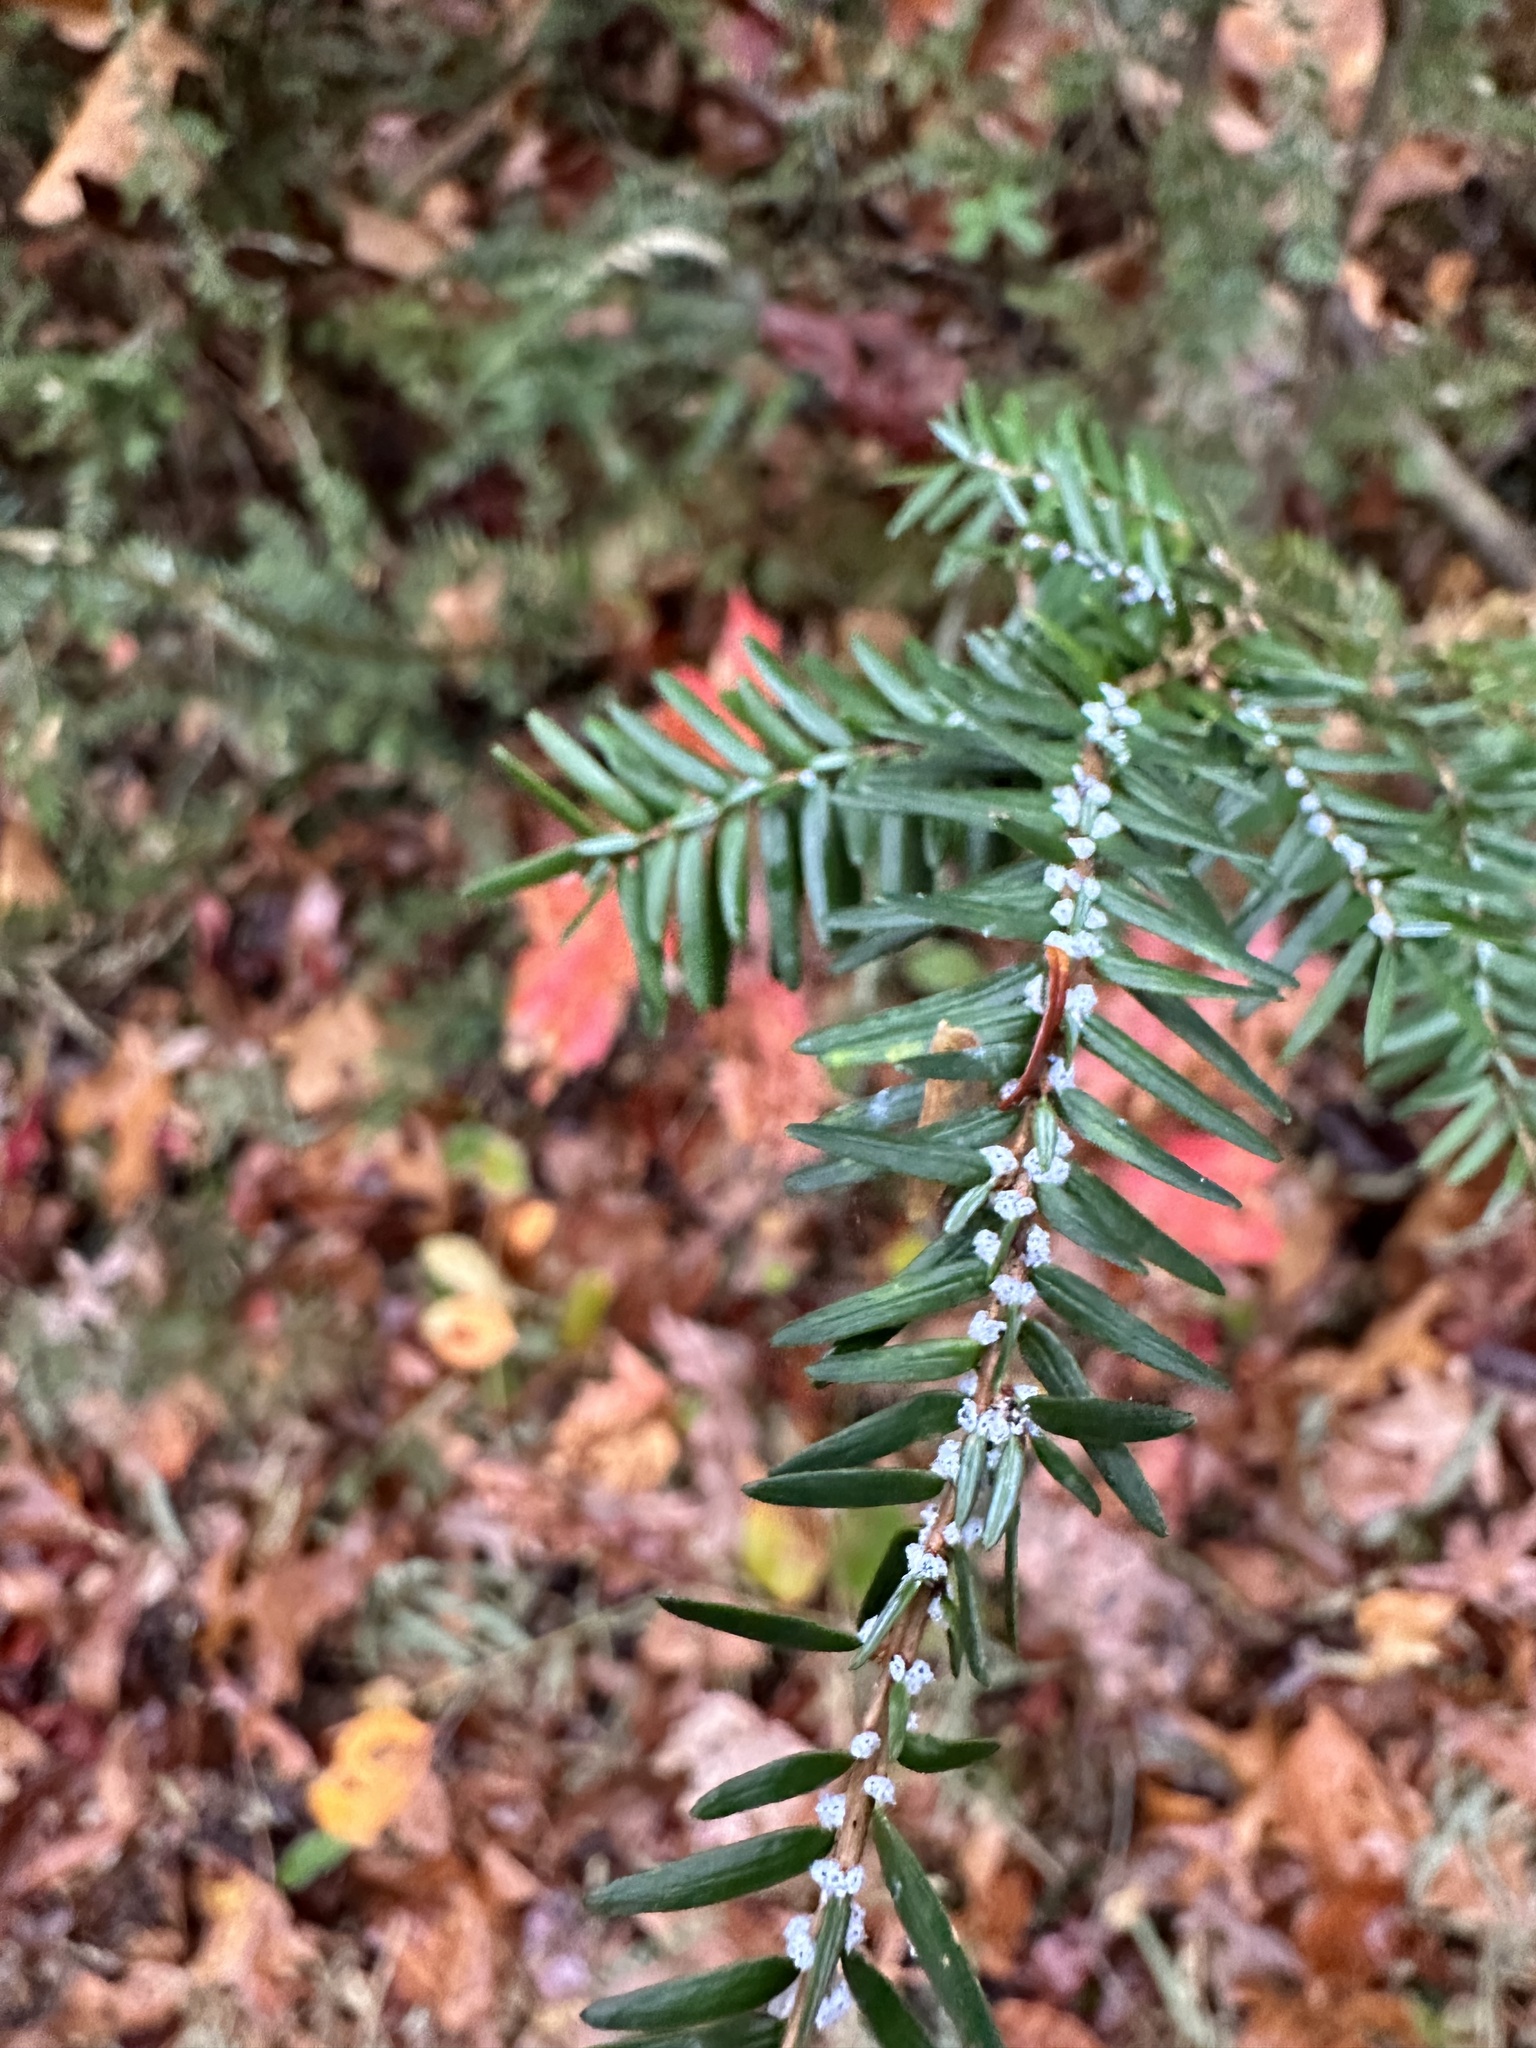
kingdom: Animalia
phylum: Arthropoda
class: Insecta
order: Hemiptera
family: Adelgidae
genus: Adelges
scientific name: Adelges tsugae
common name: Hemlock woolly adelgid
